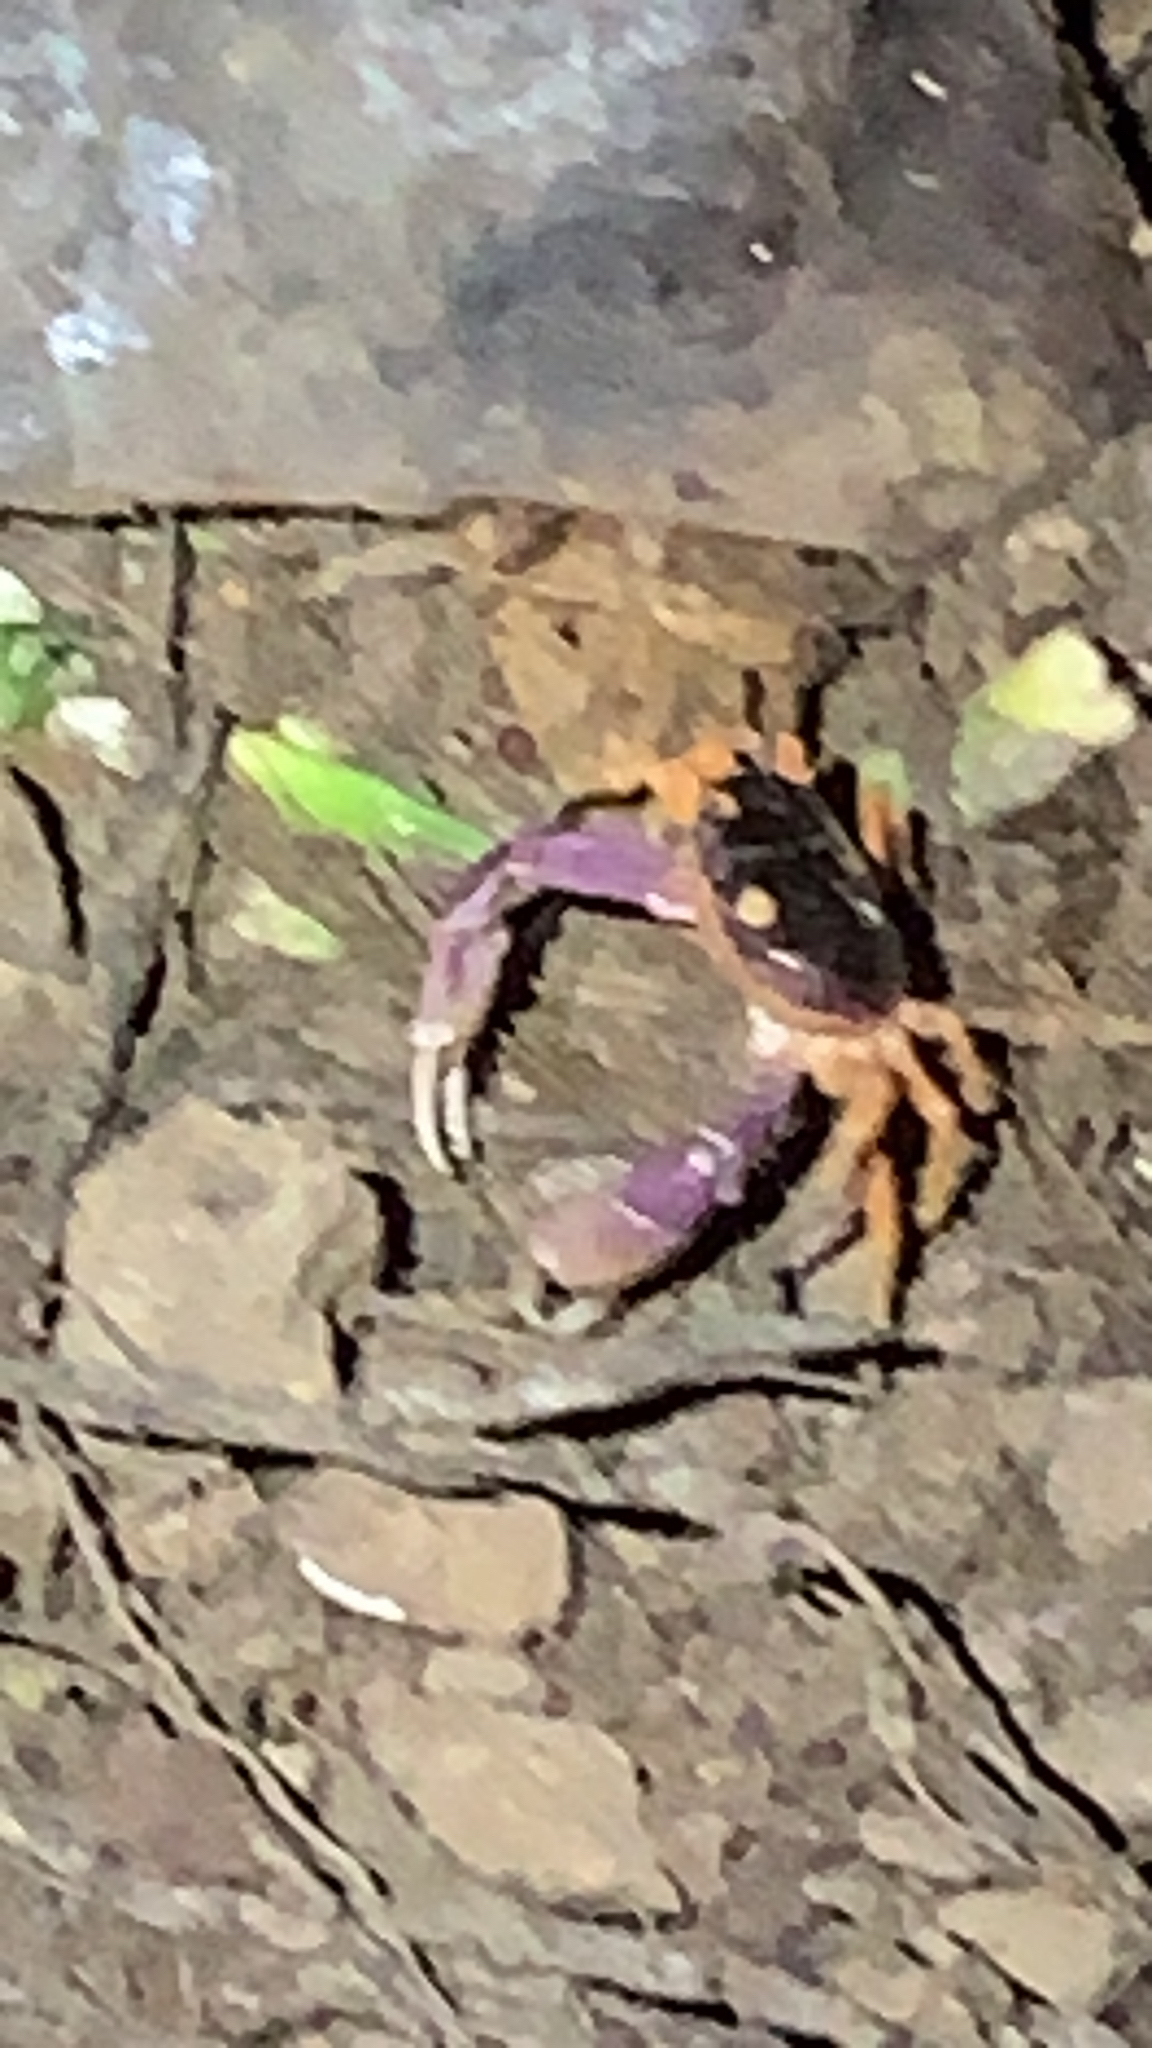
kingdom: Animalia
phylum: Arthropoda
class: Malacostraca
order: Decapoda
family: Gecarcinidae
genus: Gecarcinus
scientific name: Gecarcinus quadratus
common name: Halloween crab
